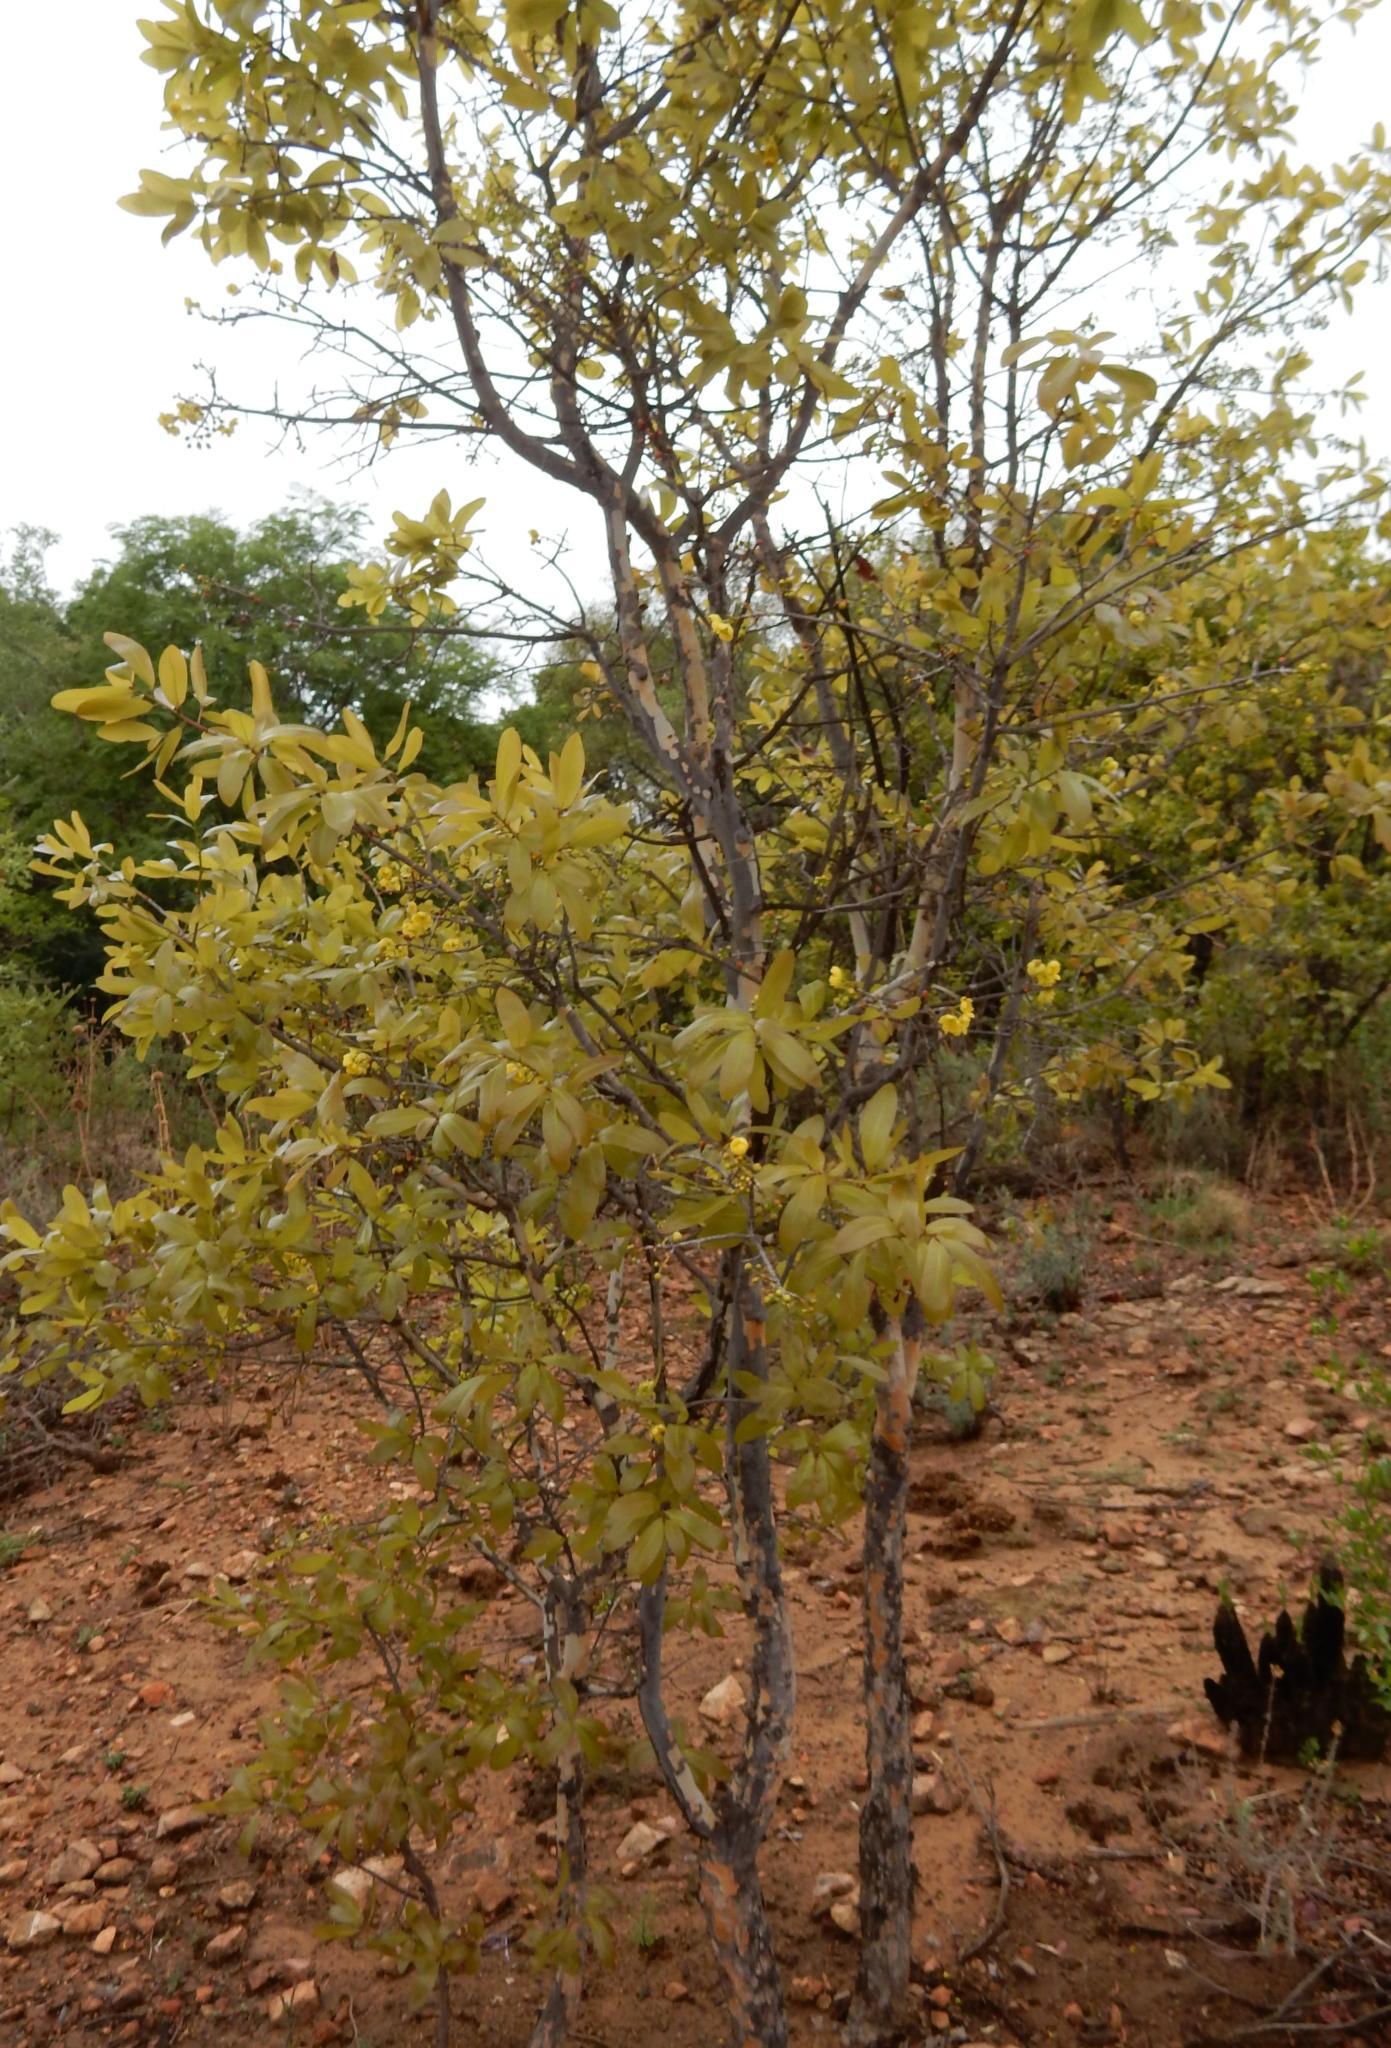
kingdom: Plantae
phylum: Tracheophyta
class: Magnoliopsida
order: Malpighiales
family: Ochnaceae
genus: Ochna
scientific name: Ochna pulchra
